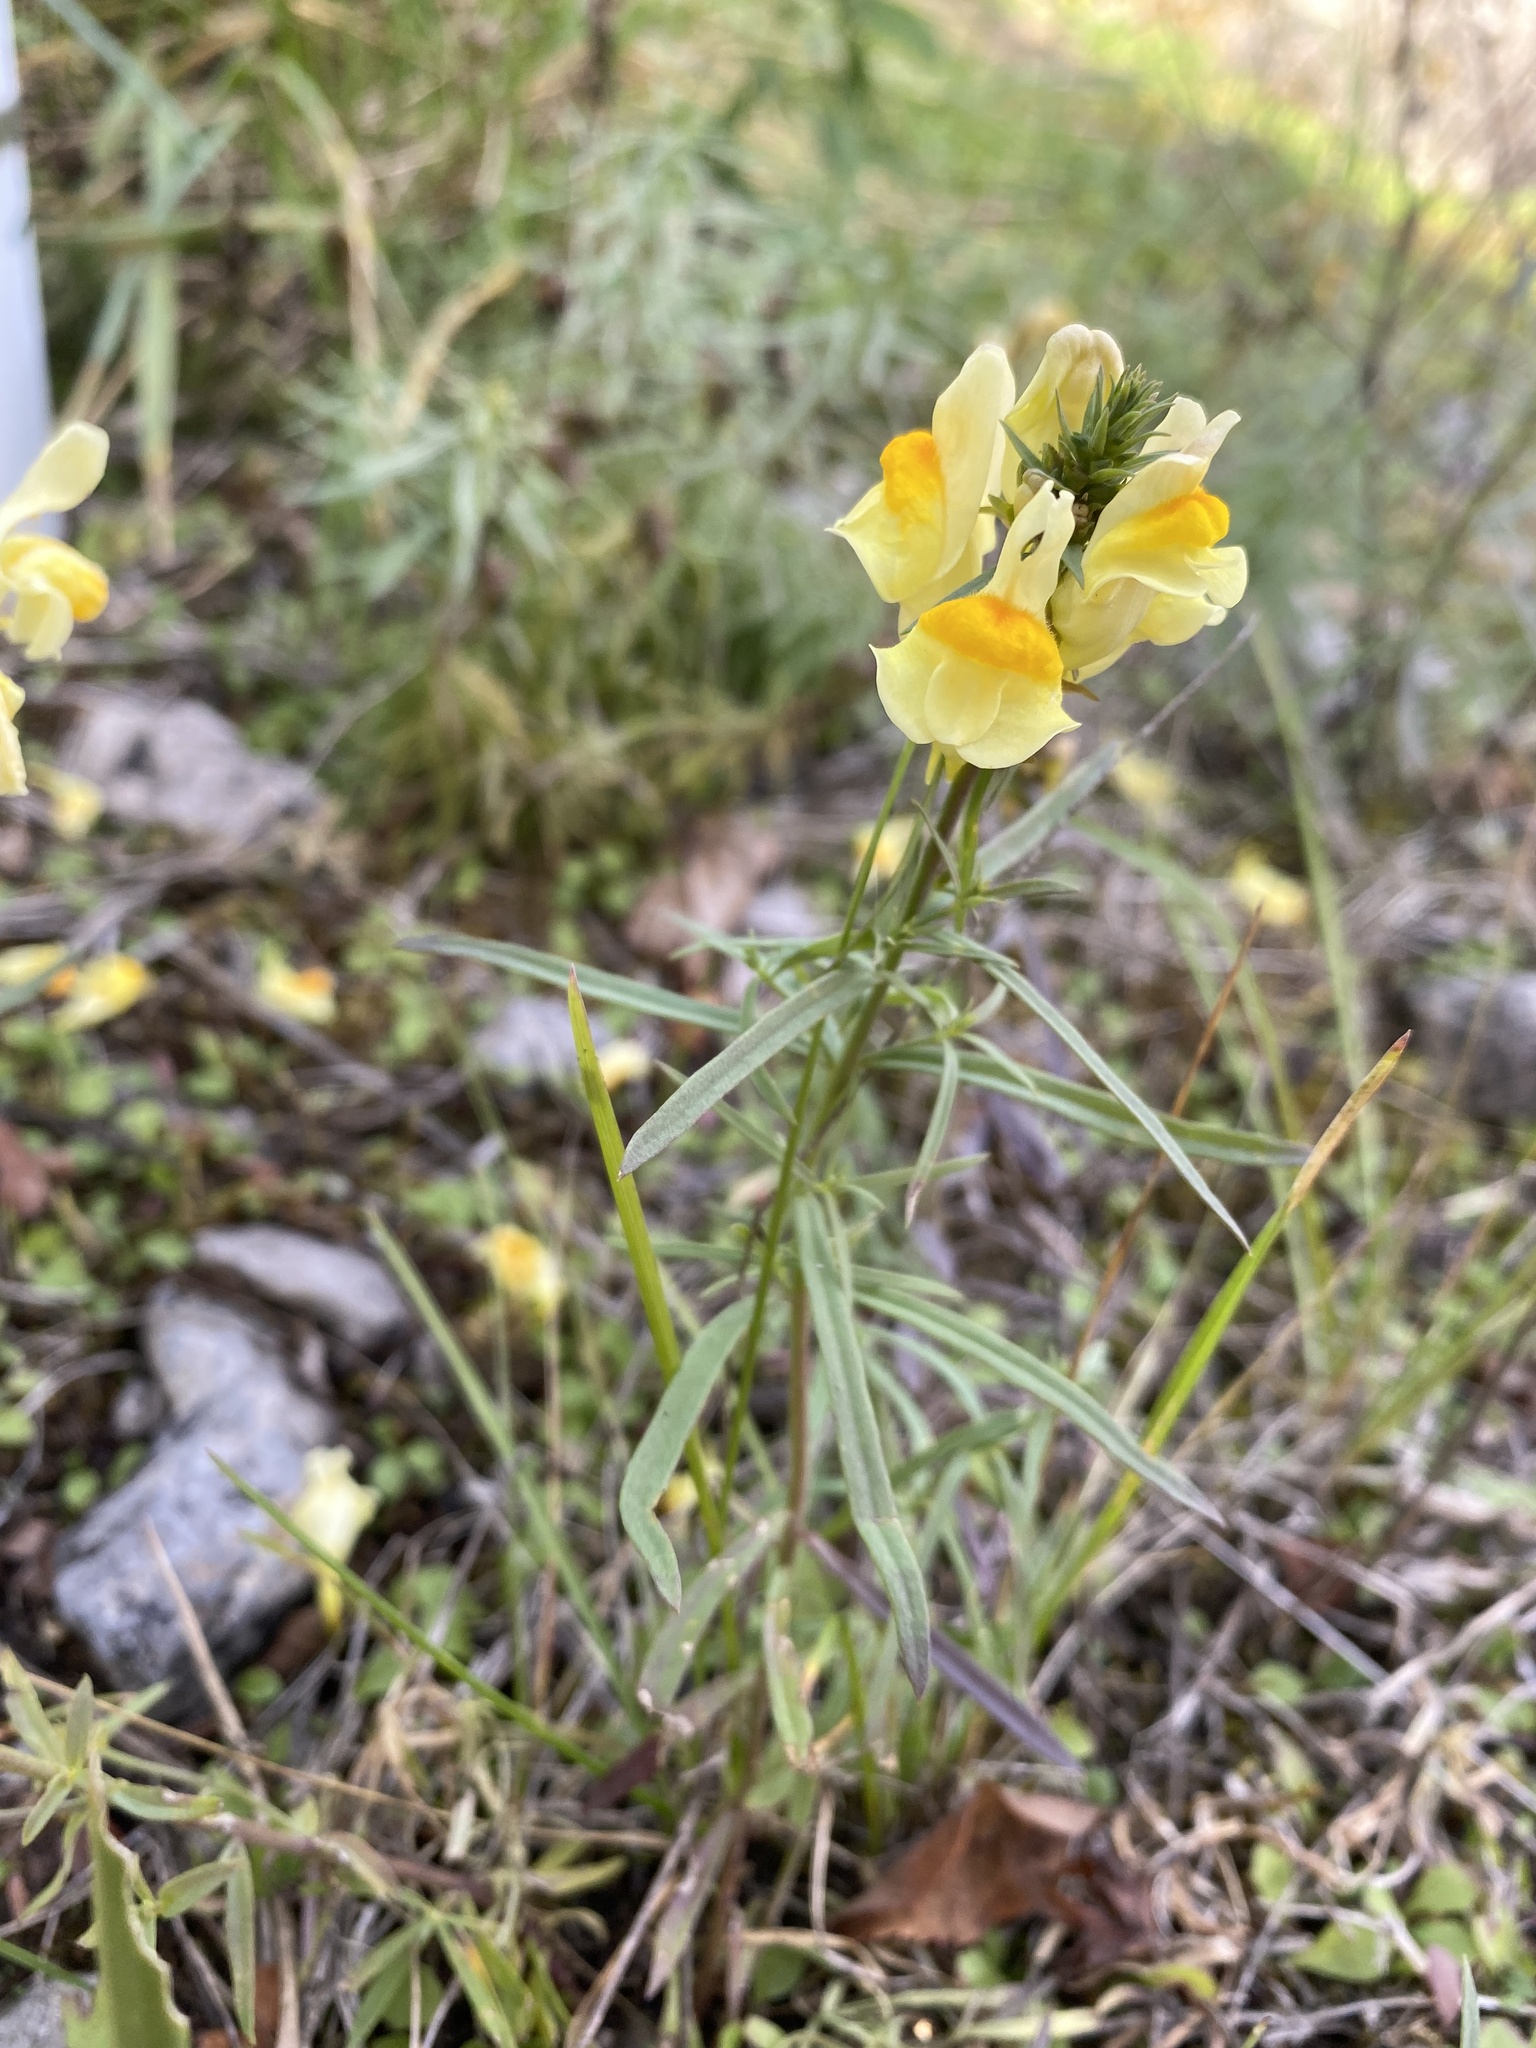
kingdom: Plantae
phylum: Tracheophyta
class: Magnoliopsida
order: Lamiales
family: Plantaginaceae
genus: Linaria
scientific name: Linaria vulgaris
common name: Butter and eggs
